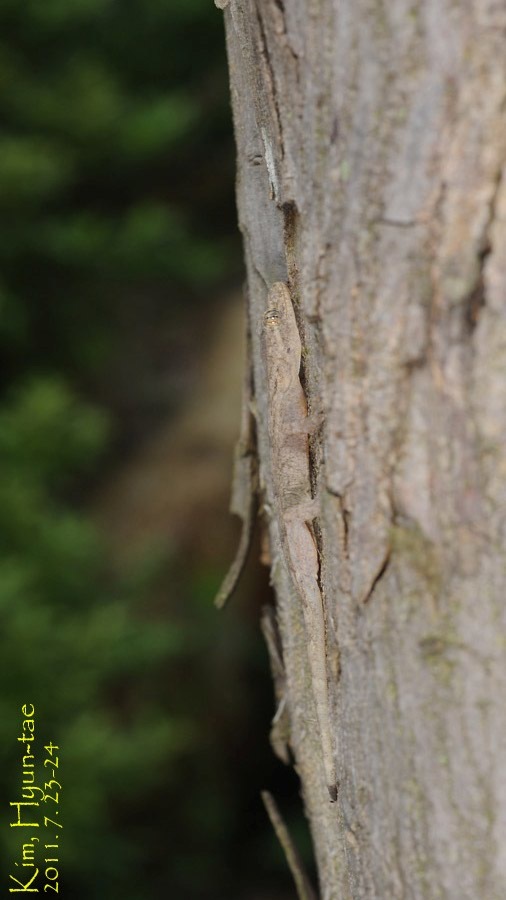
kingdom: Animalia
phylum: Chordata
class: Squamata
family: Gekkonidae
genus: Gekko
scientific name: Gekko japonicus
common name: Schlegel's japanese gecko
